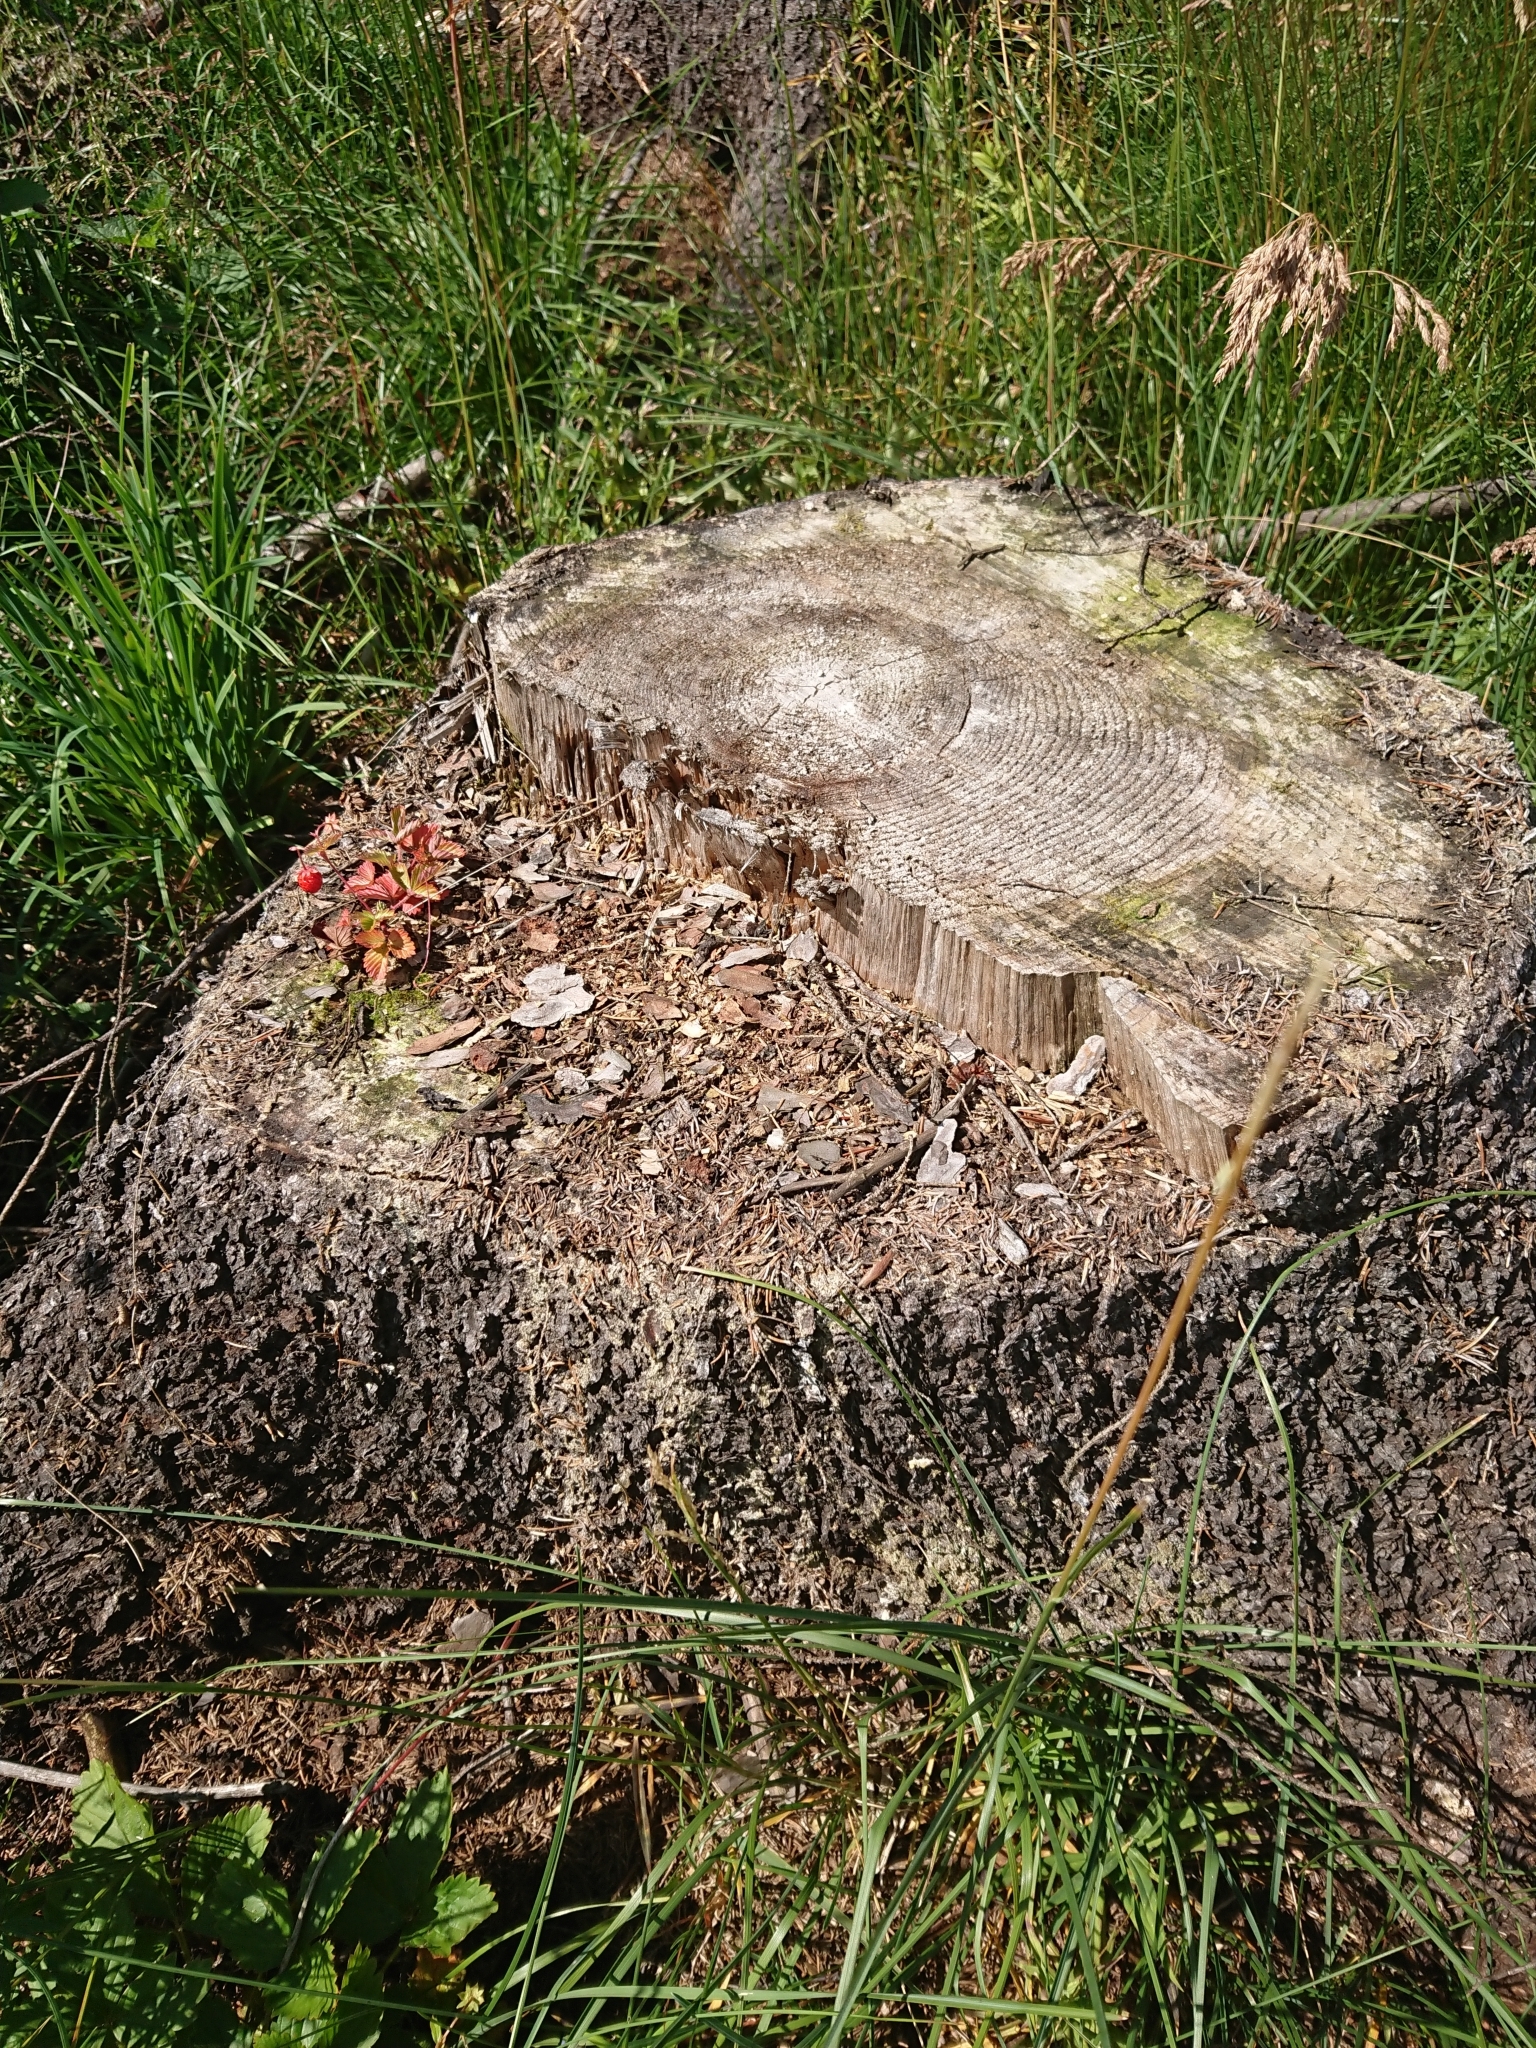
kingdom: Plantae
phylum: Tracheophyta
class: Magnoliopsida
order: Rosales
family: Rosaceae
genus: Fragaria
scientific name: Fragaria vesca
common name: Wild strawberry
